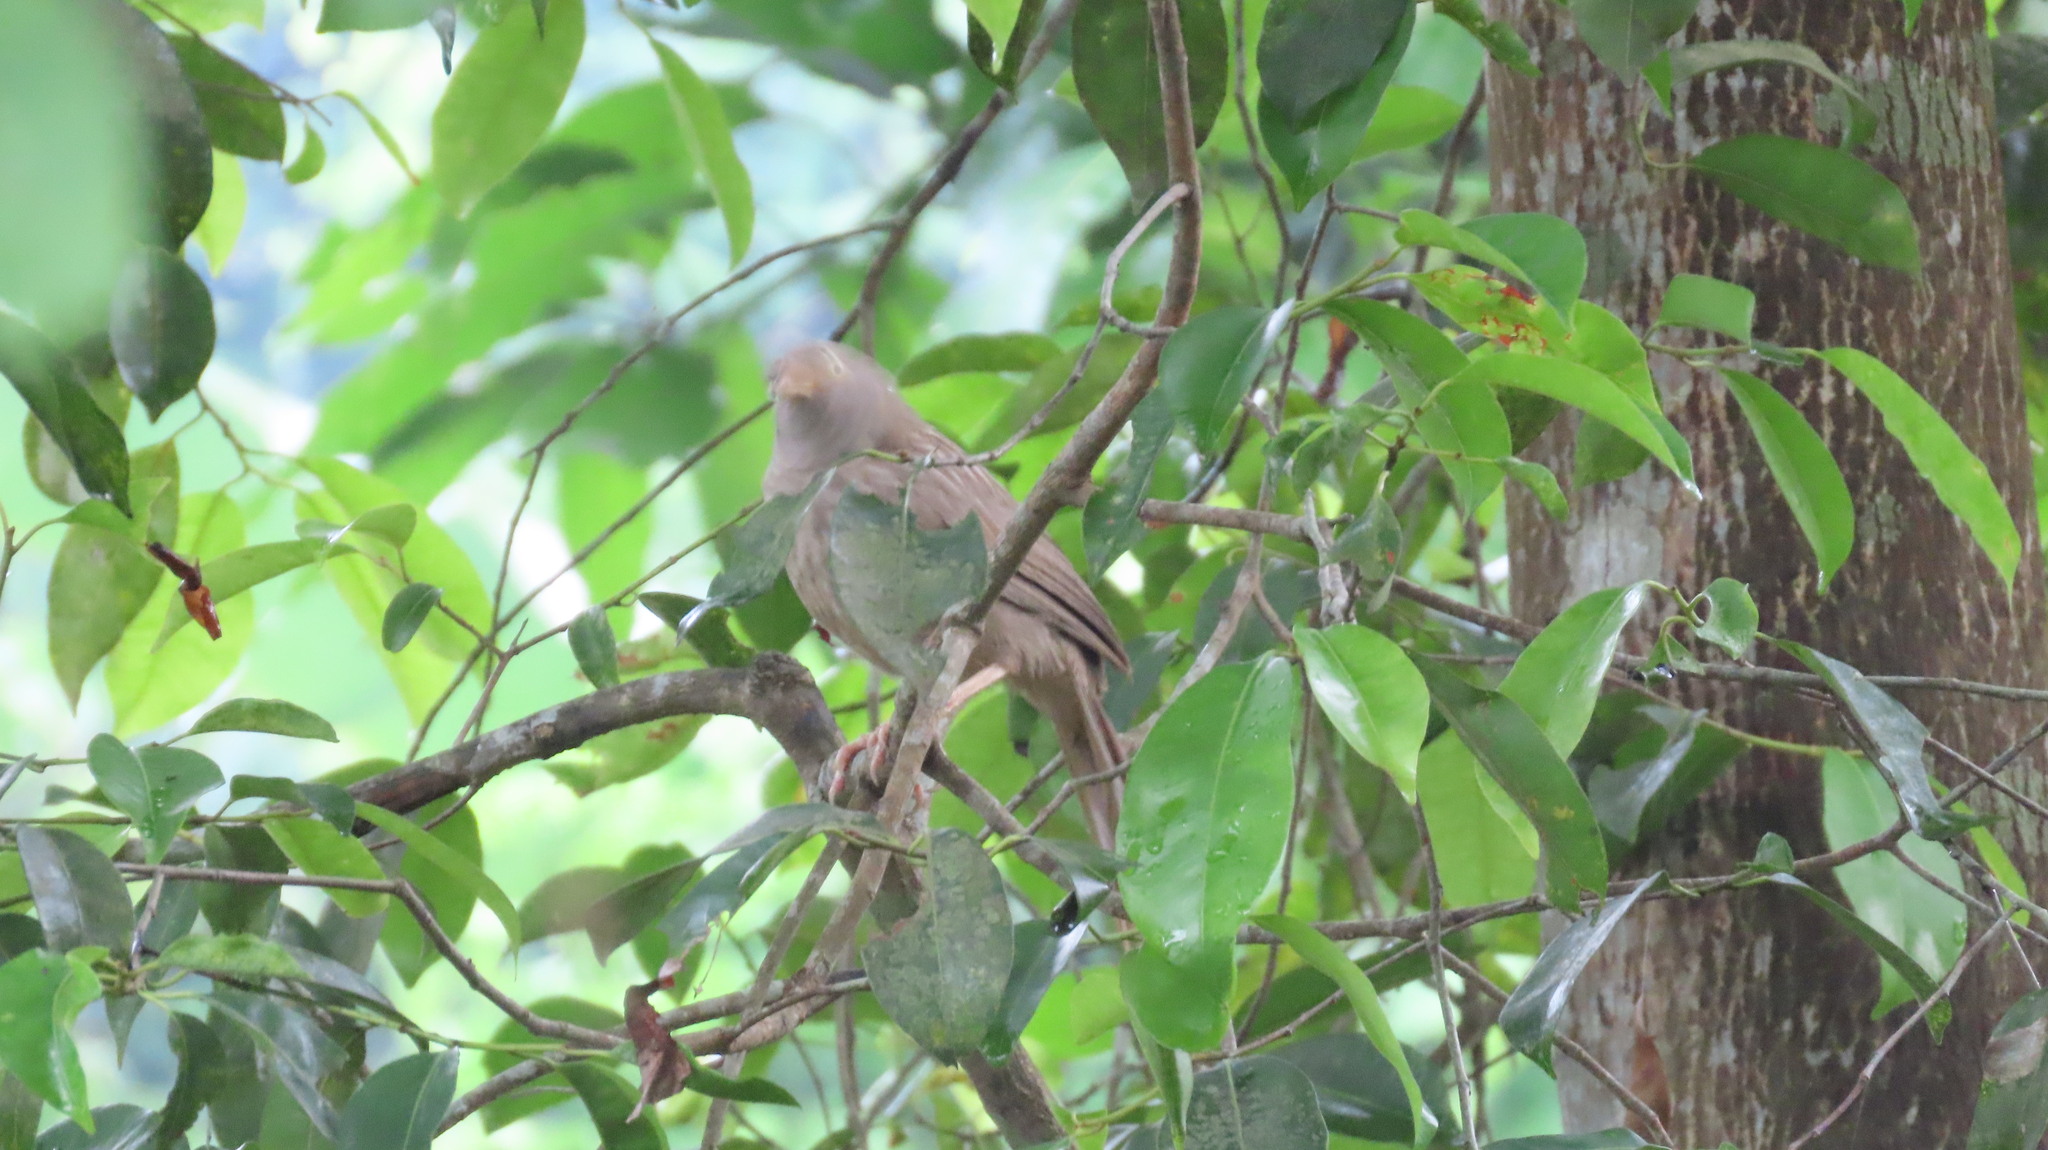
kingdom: Animalia
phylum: Chordata
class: Aves
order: Passeriformes
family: Leiothrichidae
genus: Turdoides
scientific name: Turdoides striata
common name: Jungle babbler
